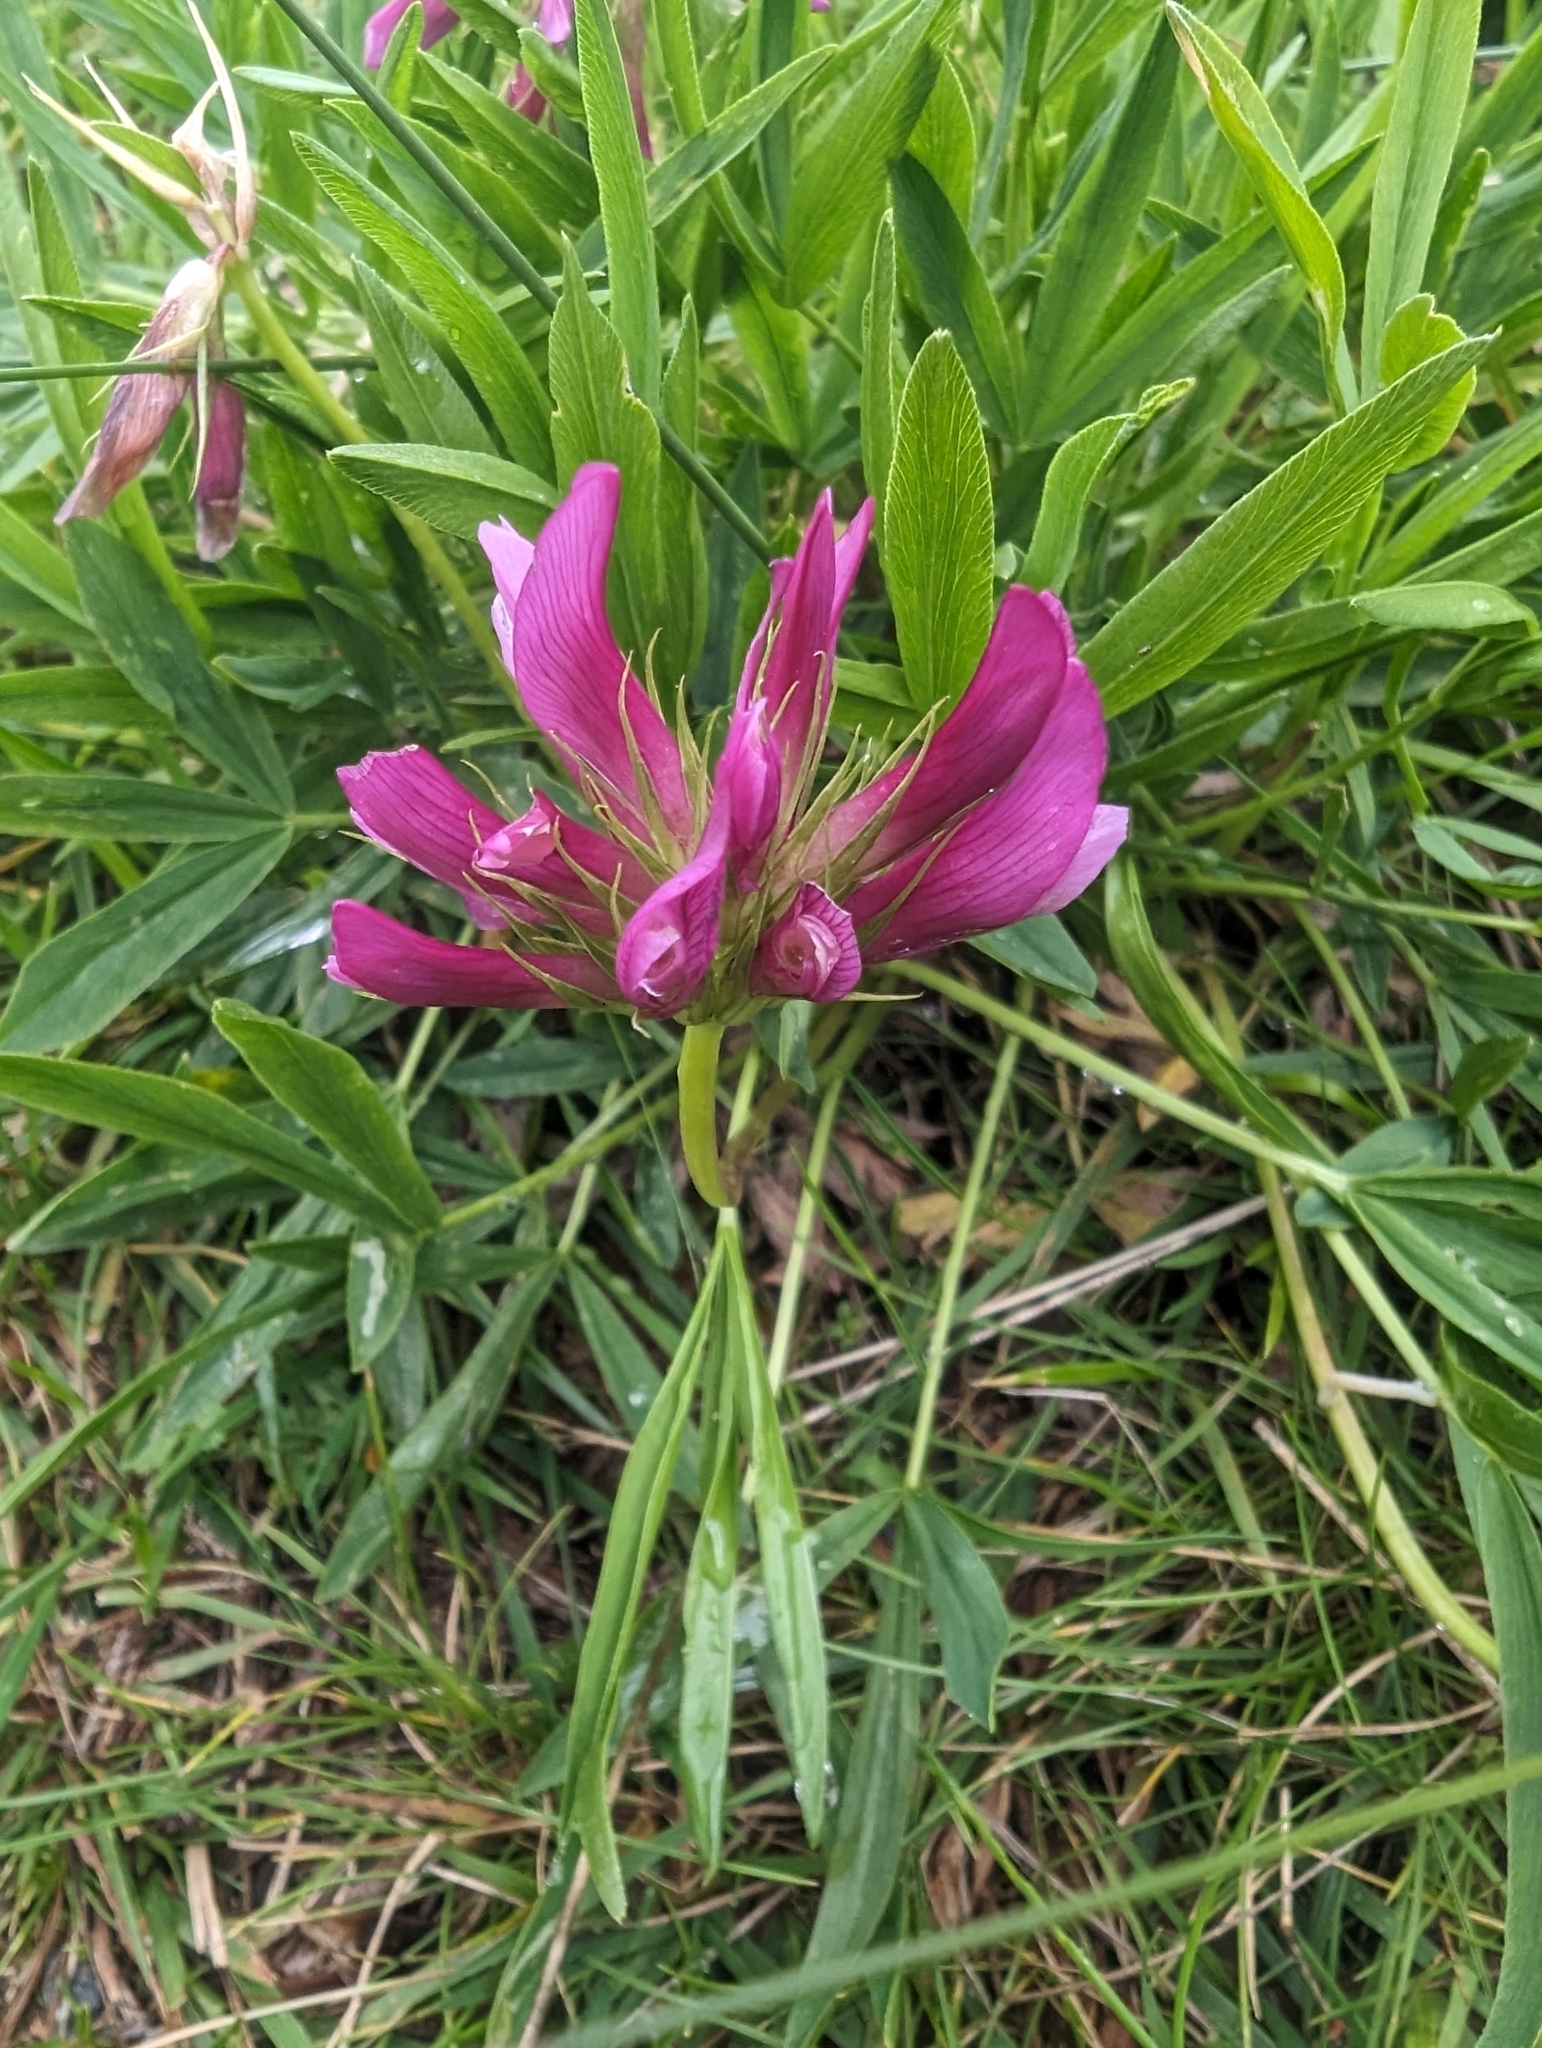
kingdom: Plantae
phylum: Tracheophyta
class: Magnoliopsida
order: Fabales
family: Fabaceae
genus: Trifolium
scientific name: Trifolium alpinum
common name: Alpine clover
